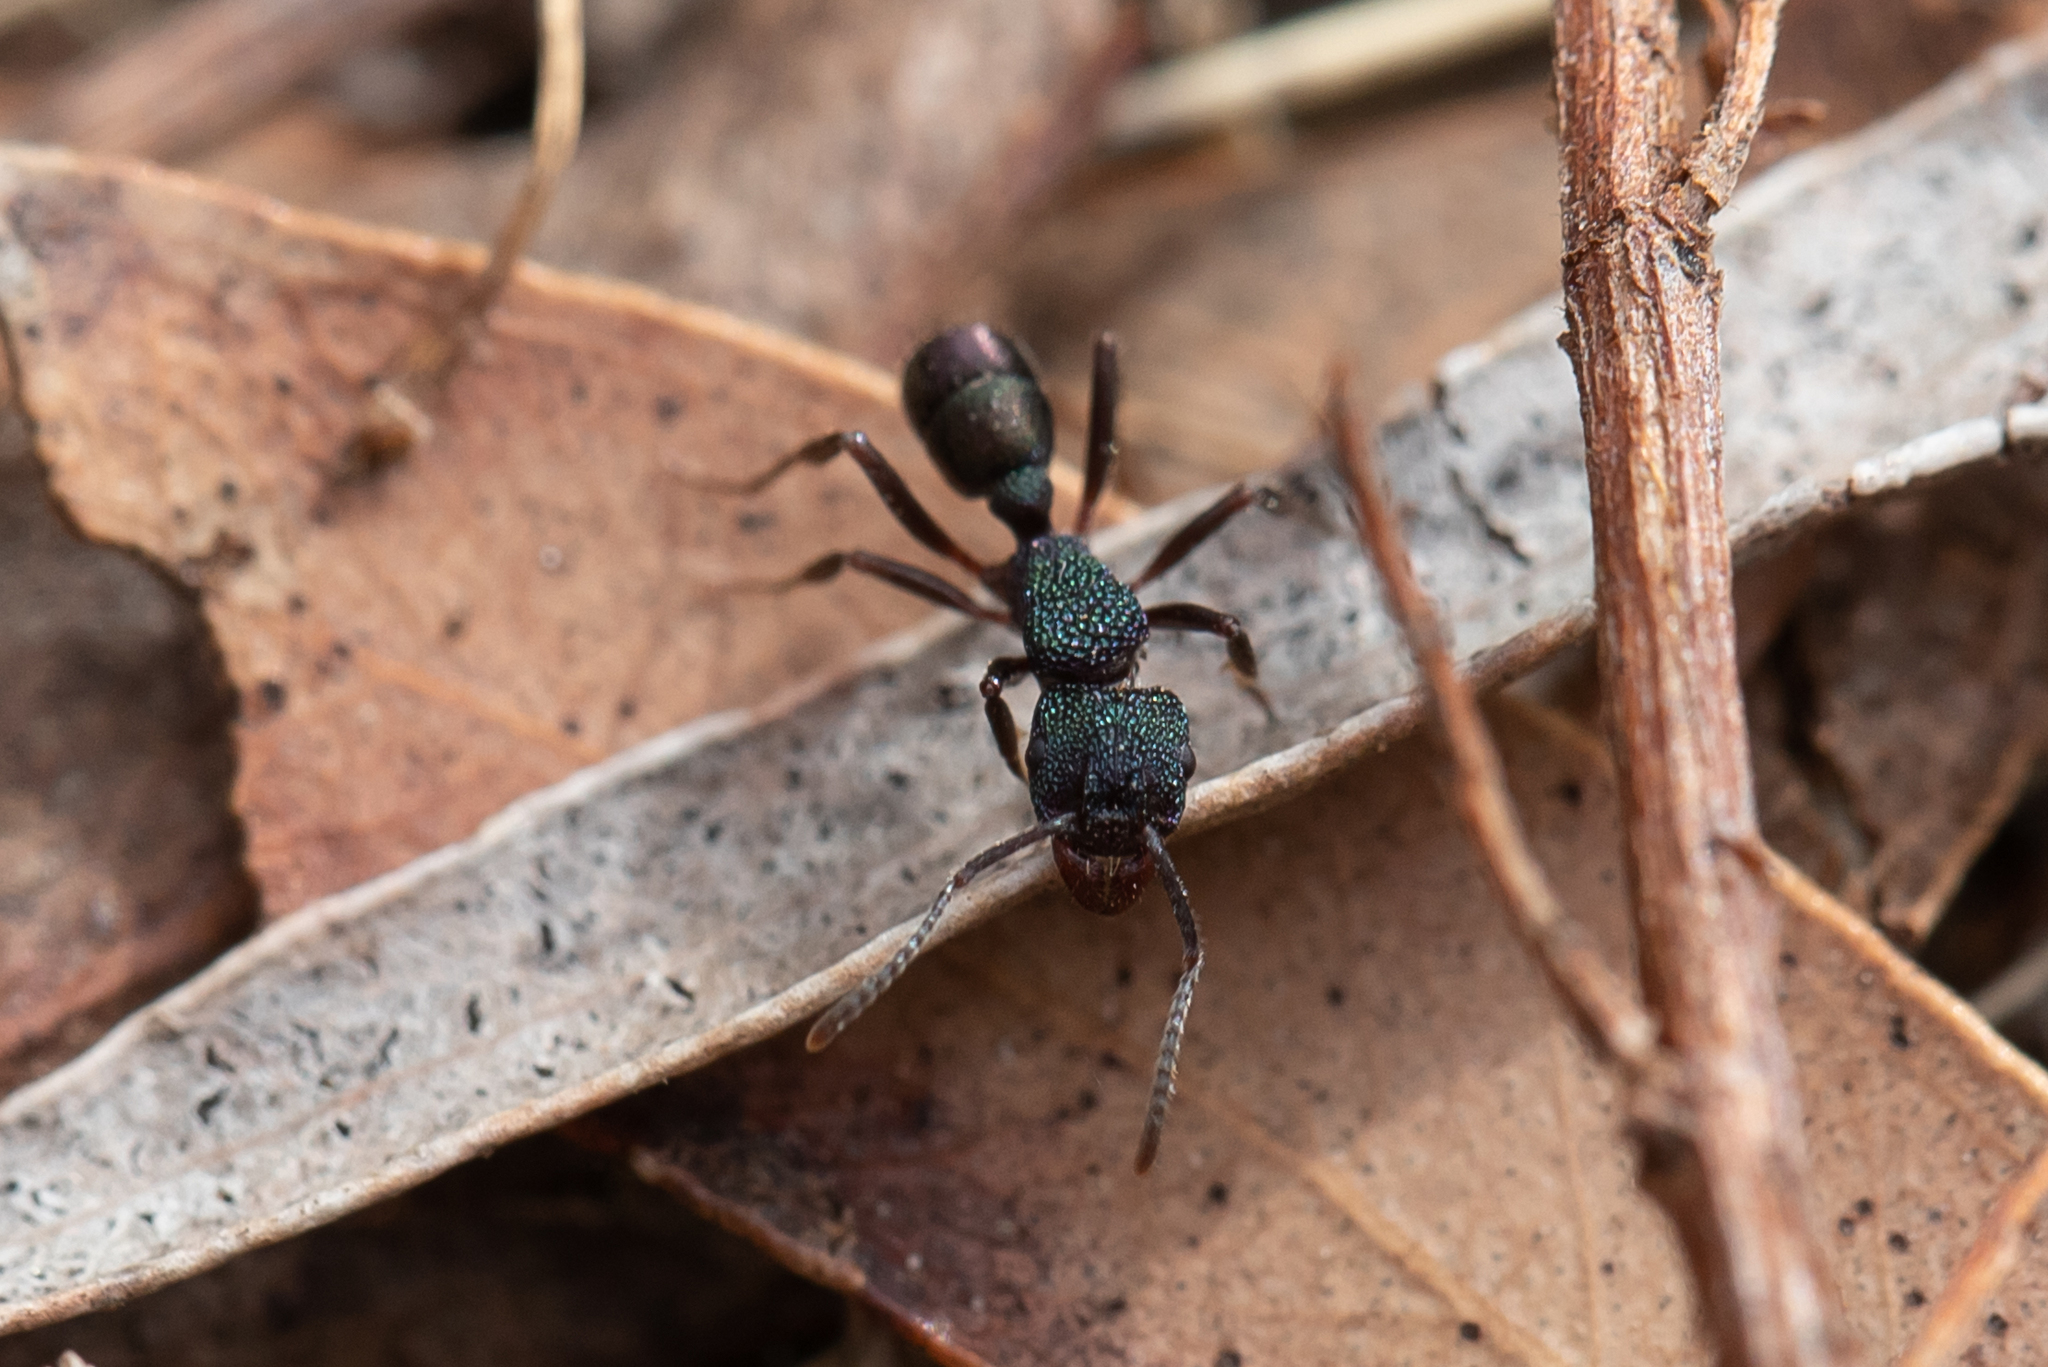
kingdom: Animalia
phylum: Arthropoda
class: Insecta
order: Hymenoptera
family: Formicidae
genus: Rhytidoponera
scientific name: Rhytidoponera metallica
